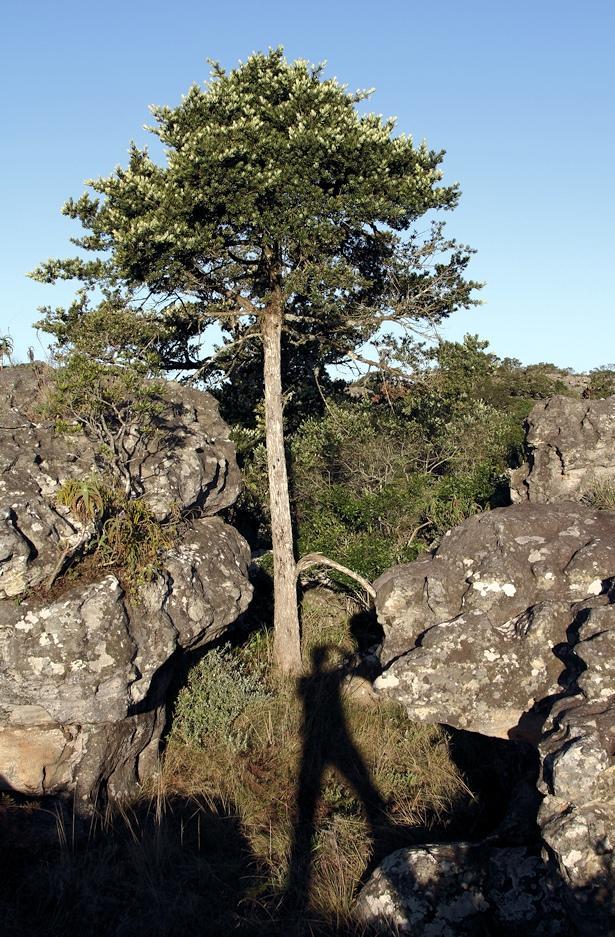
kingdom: Plantae
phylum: Tracheophyta
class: Pinopsida
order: Pinales
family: Podocarpaceae
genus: Podocarpus
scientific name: Podocarpus latifolius
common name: True yellowwood
